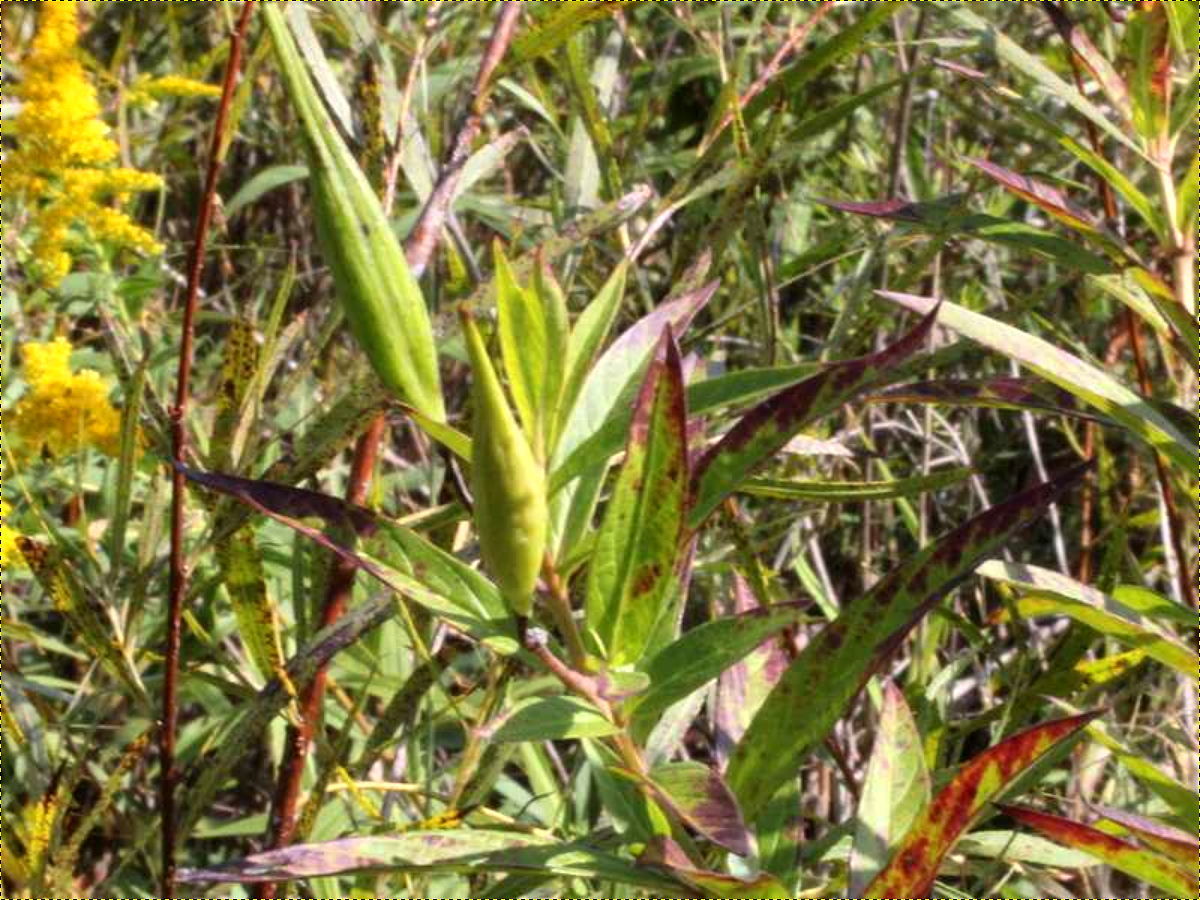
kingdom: Plantae
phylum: Tracheophyta
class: Magnoliopsida
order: Gentianales
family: Apocynaceae
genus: Asclepias
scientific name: Asclepias incarnata
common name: Swamp milkweed
